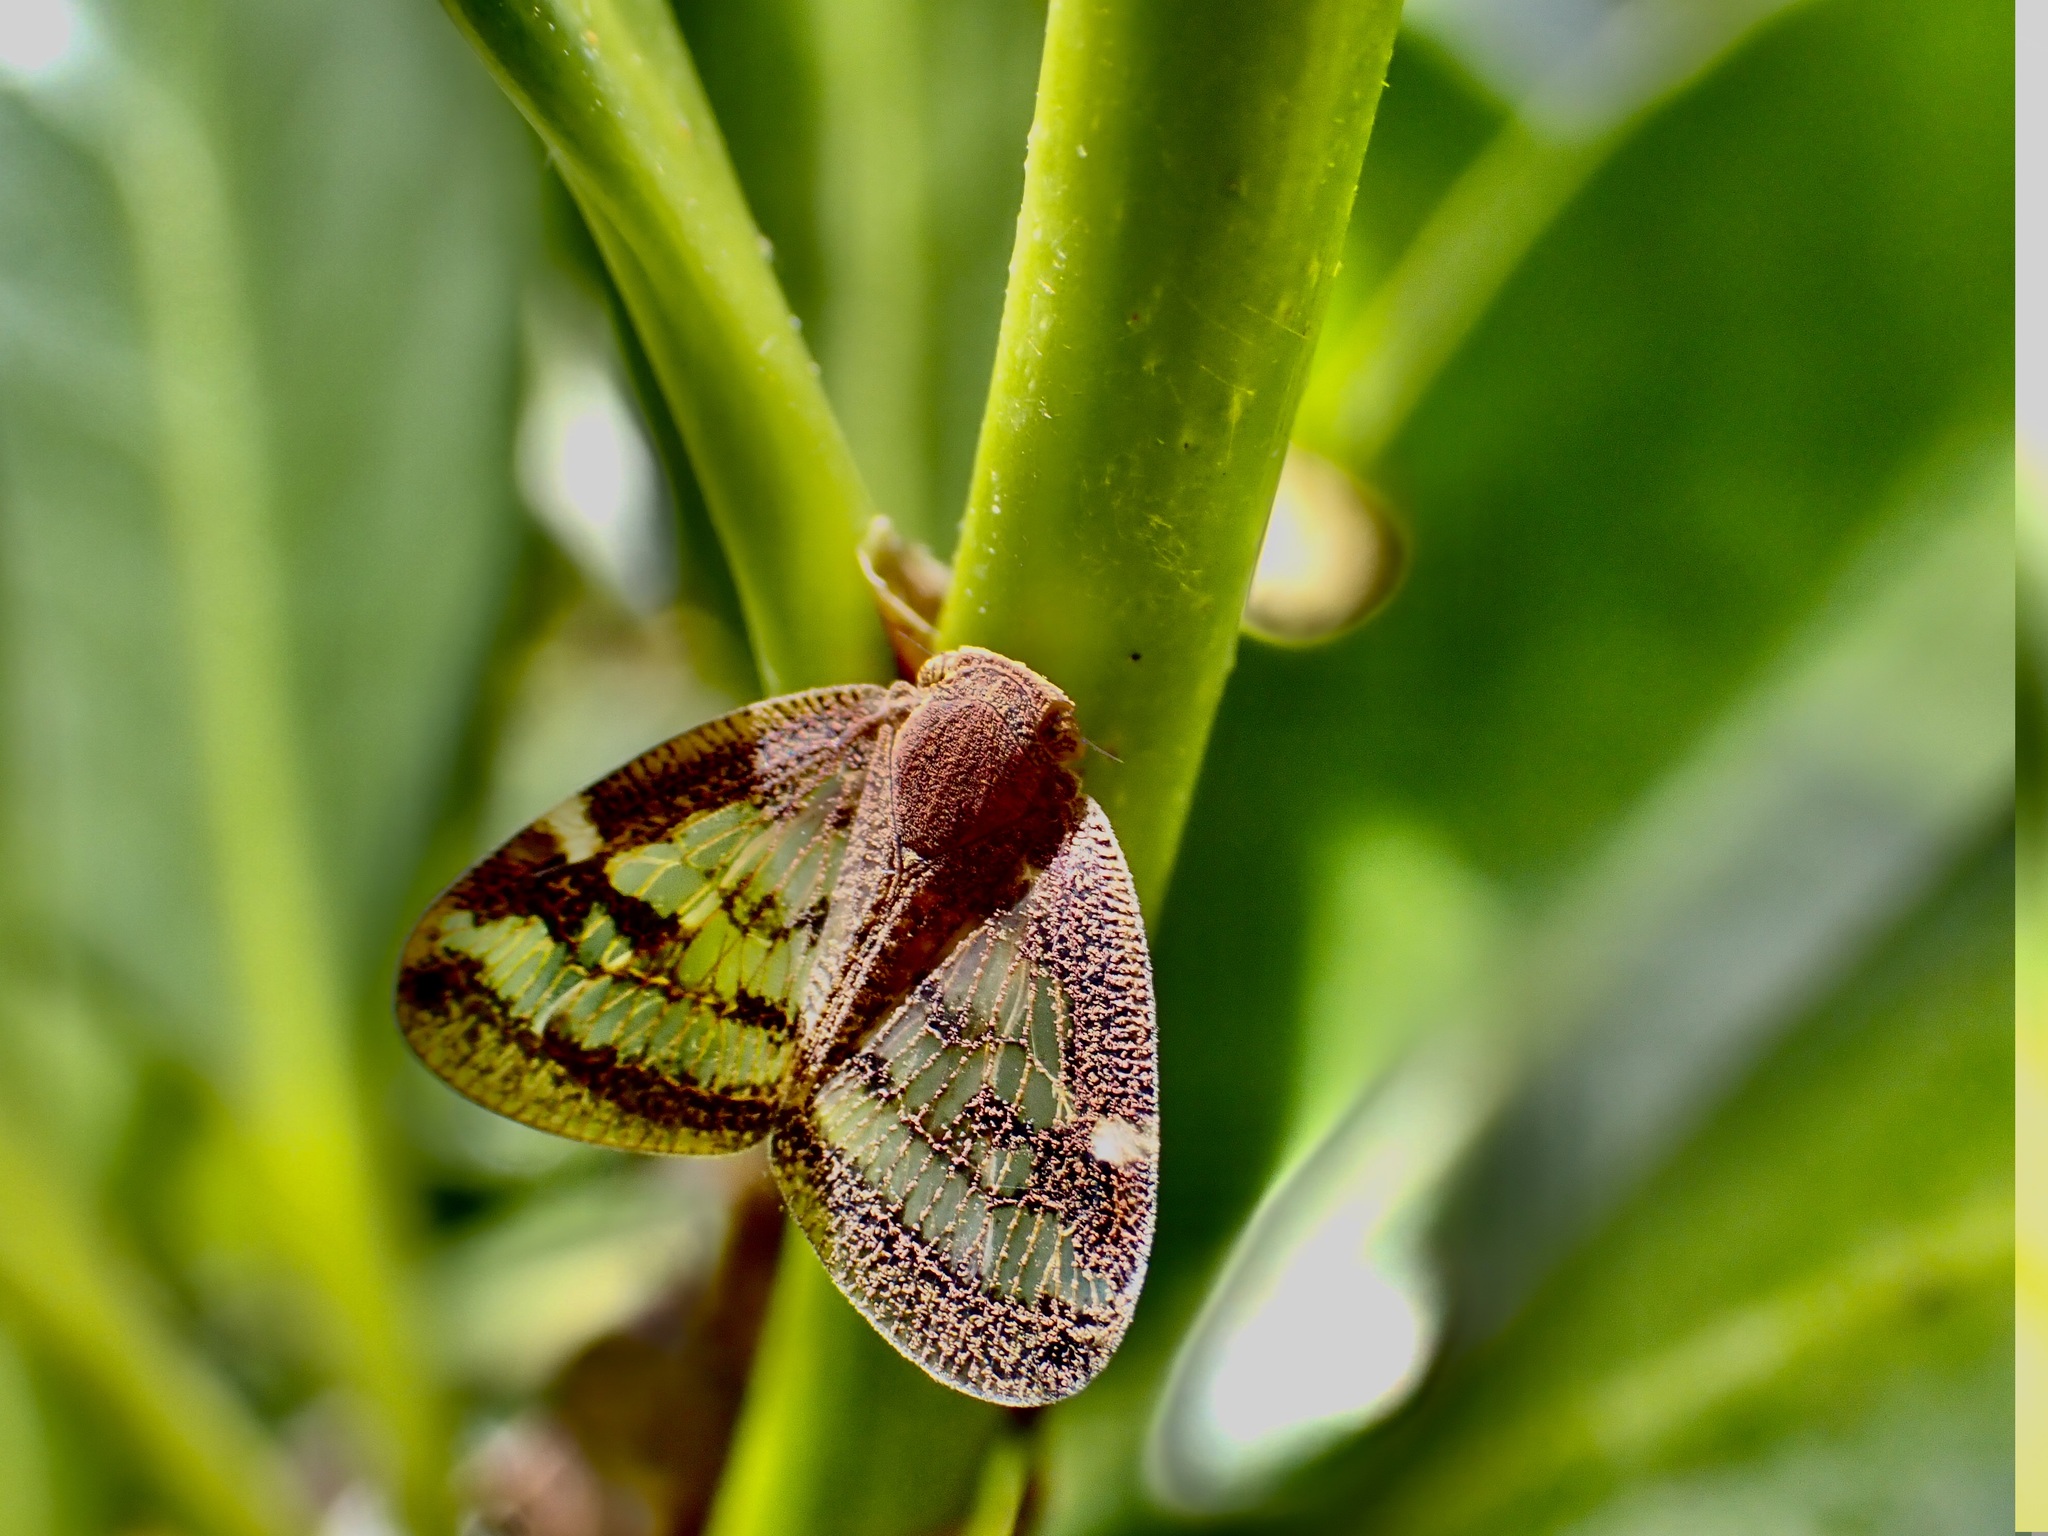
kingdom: Animalia
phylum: Arthropoda
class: Insecta
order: Hemiptera
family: Ricaniidae
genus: Scolypopa
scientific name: Scolypopa australis
